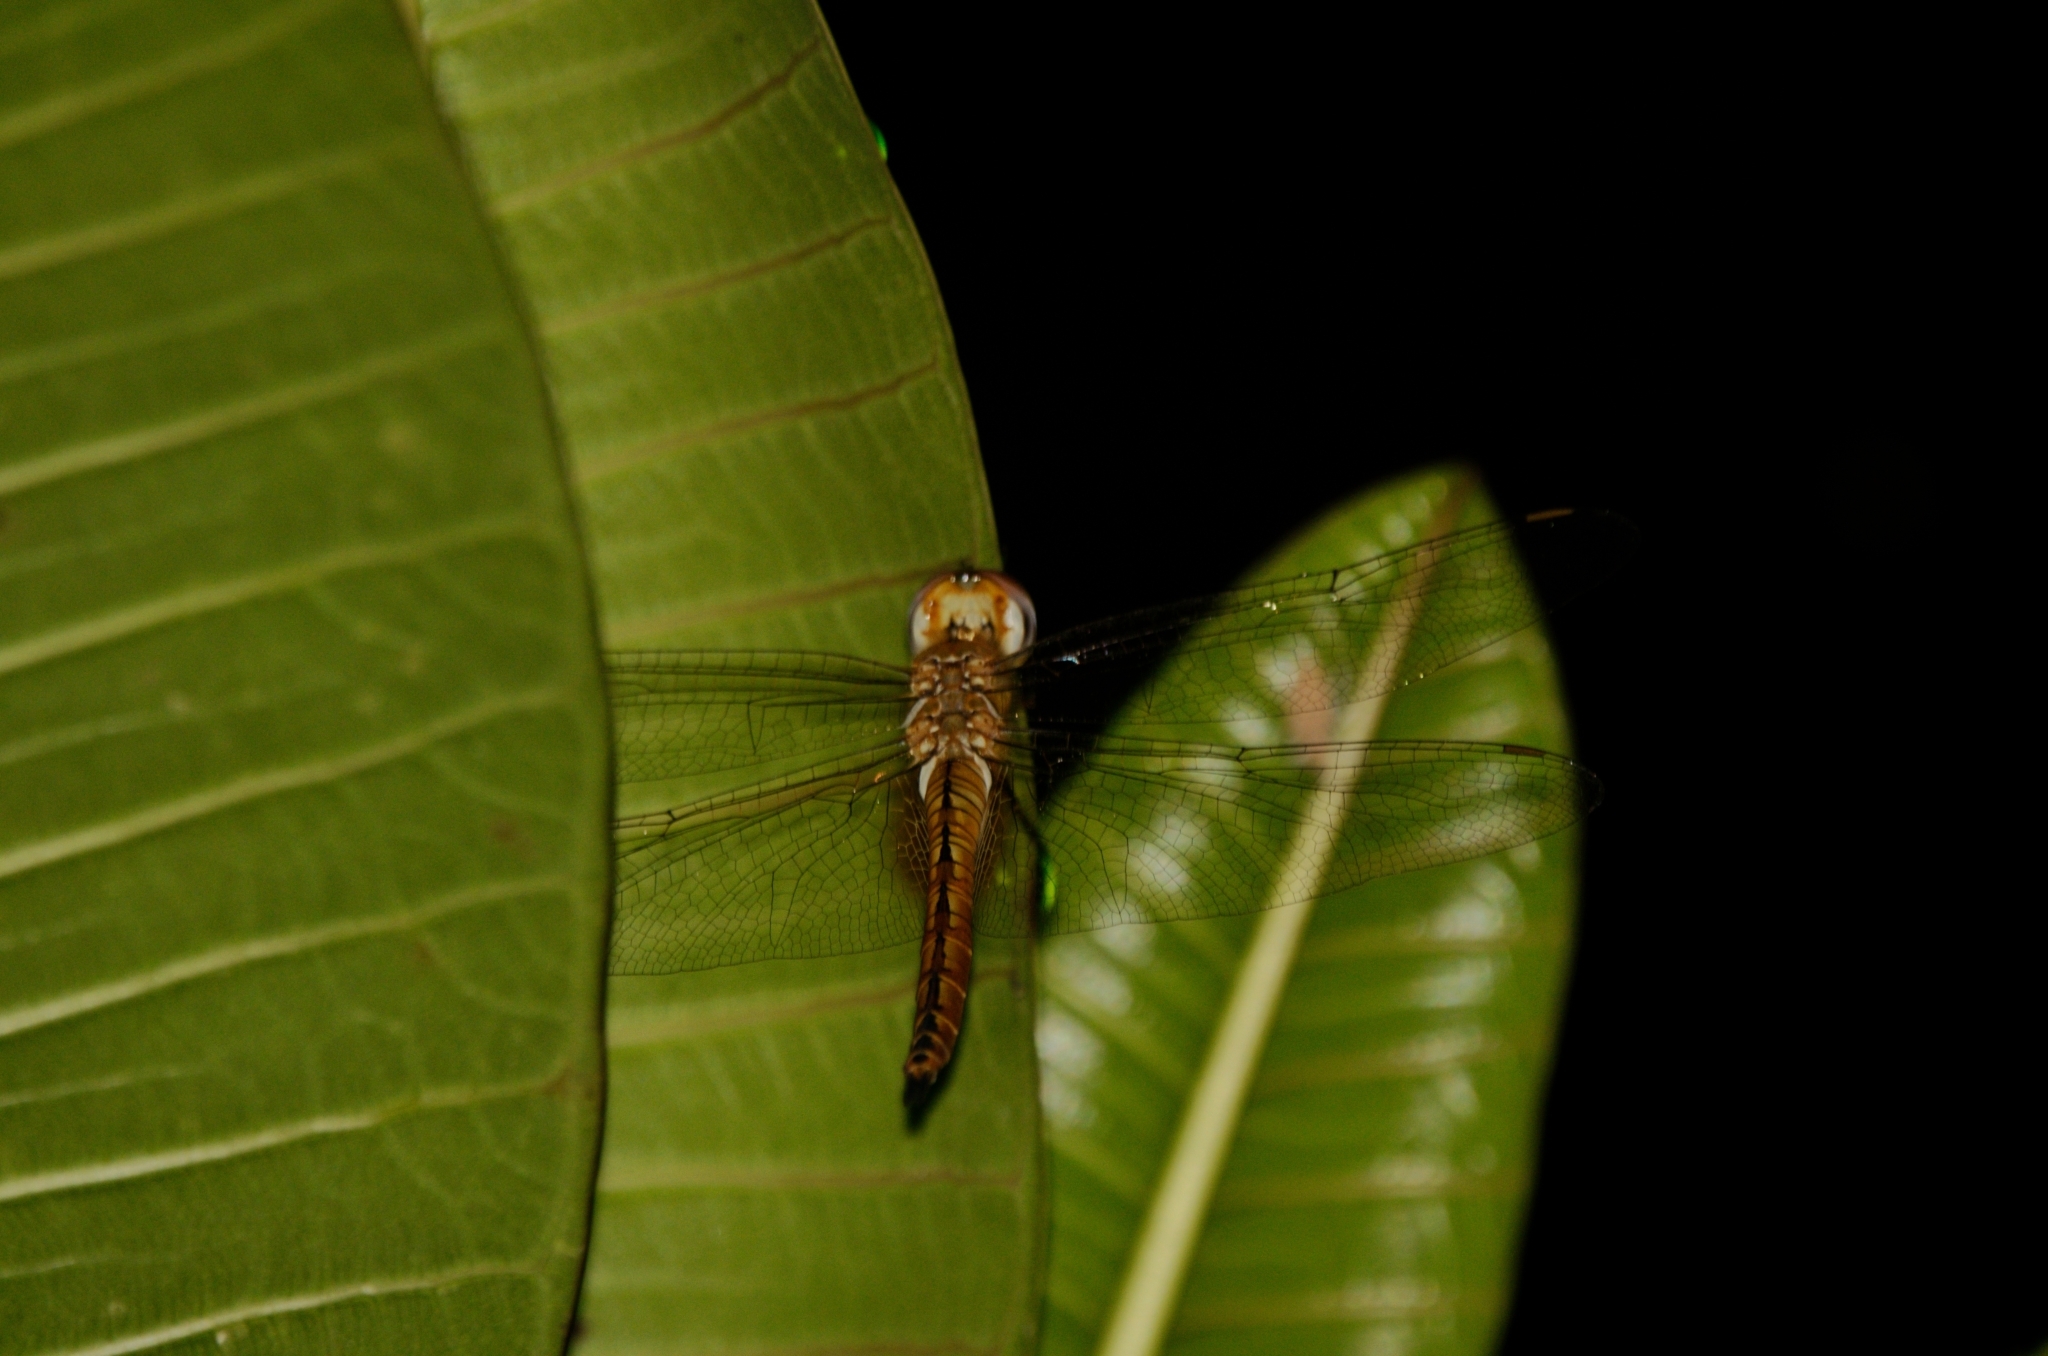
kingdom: Animalia
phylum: Arthropoda
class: Insecta
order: Odonata
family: Libellulidae
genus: Pantala
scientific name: Pantala flavescens
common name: Wandering glider
